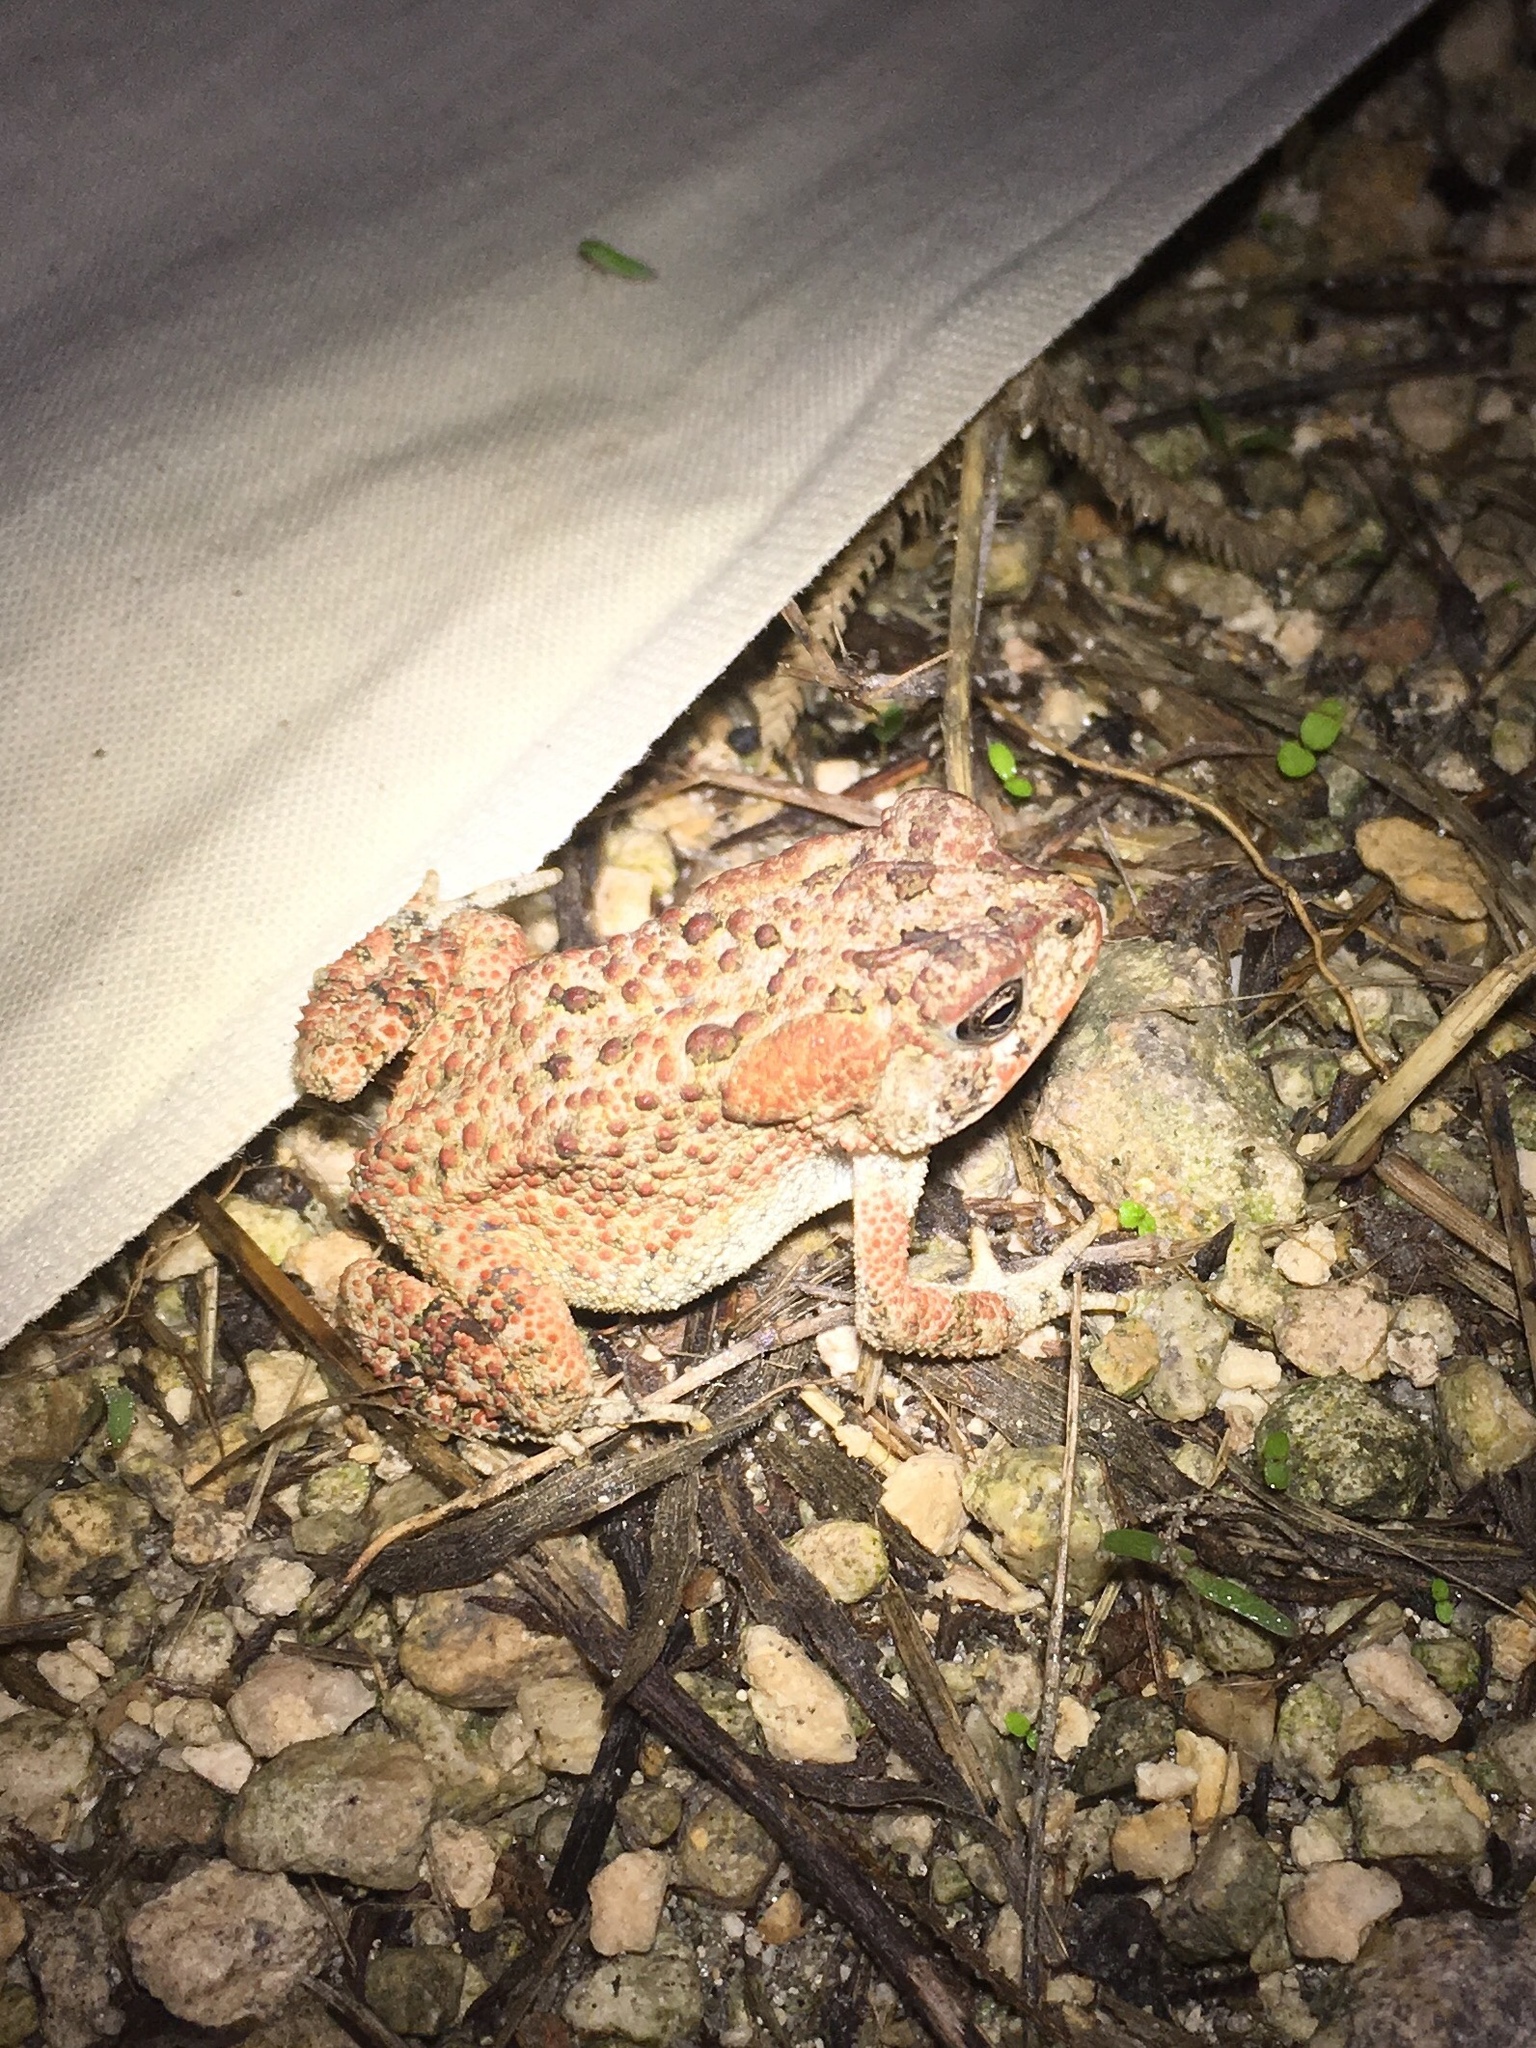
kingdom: Animalia
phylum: Chordata
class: Amphibia
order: Anura
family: Bufonidae
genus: Anaxyrus
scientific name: Anaxyrus terrestris
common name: Southern toad
